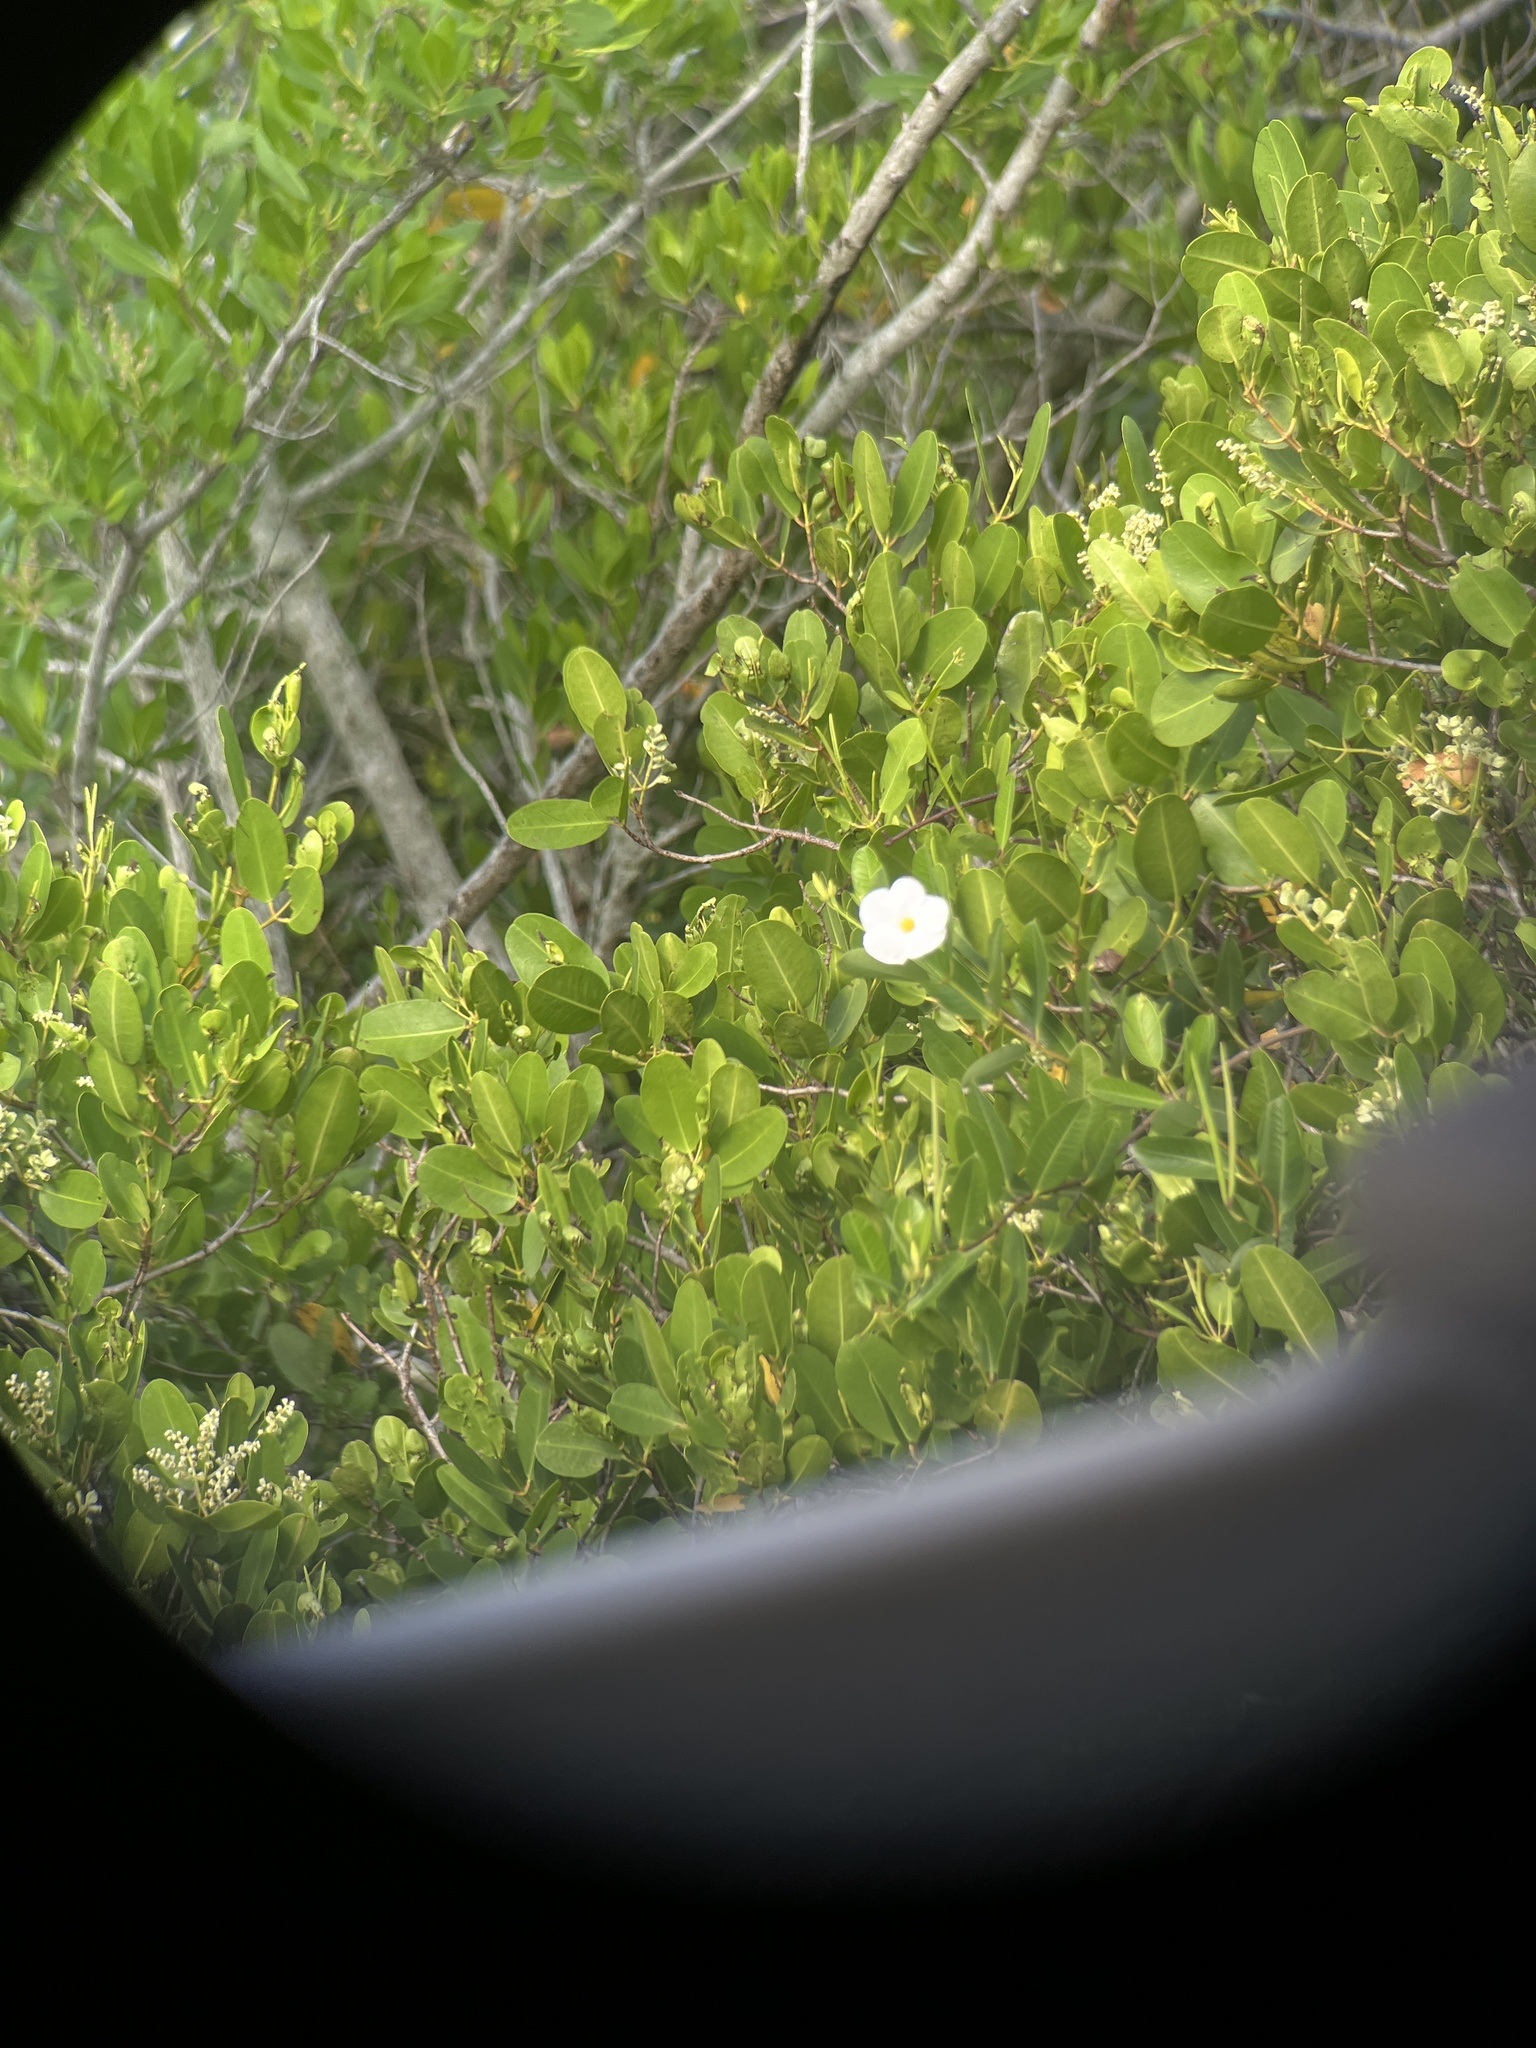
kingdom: Plantae
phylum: Tracheophyta
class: Magnoliopsida
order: Gentianales
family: Apocynaceae
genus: Rhabdadenia
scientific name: Rhabdadenia biflora
